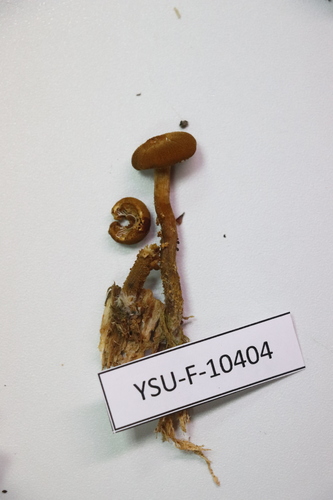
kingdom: Fungi
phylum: Basidiomycota
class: Agaricomycetes
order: Agaricales
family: Tricholomataceae
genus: Cystoderma
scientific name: Cystoderma jasonis
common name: Pine powdercap
